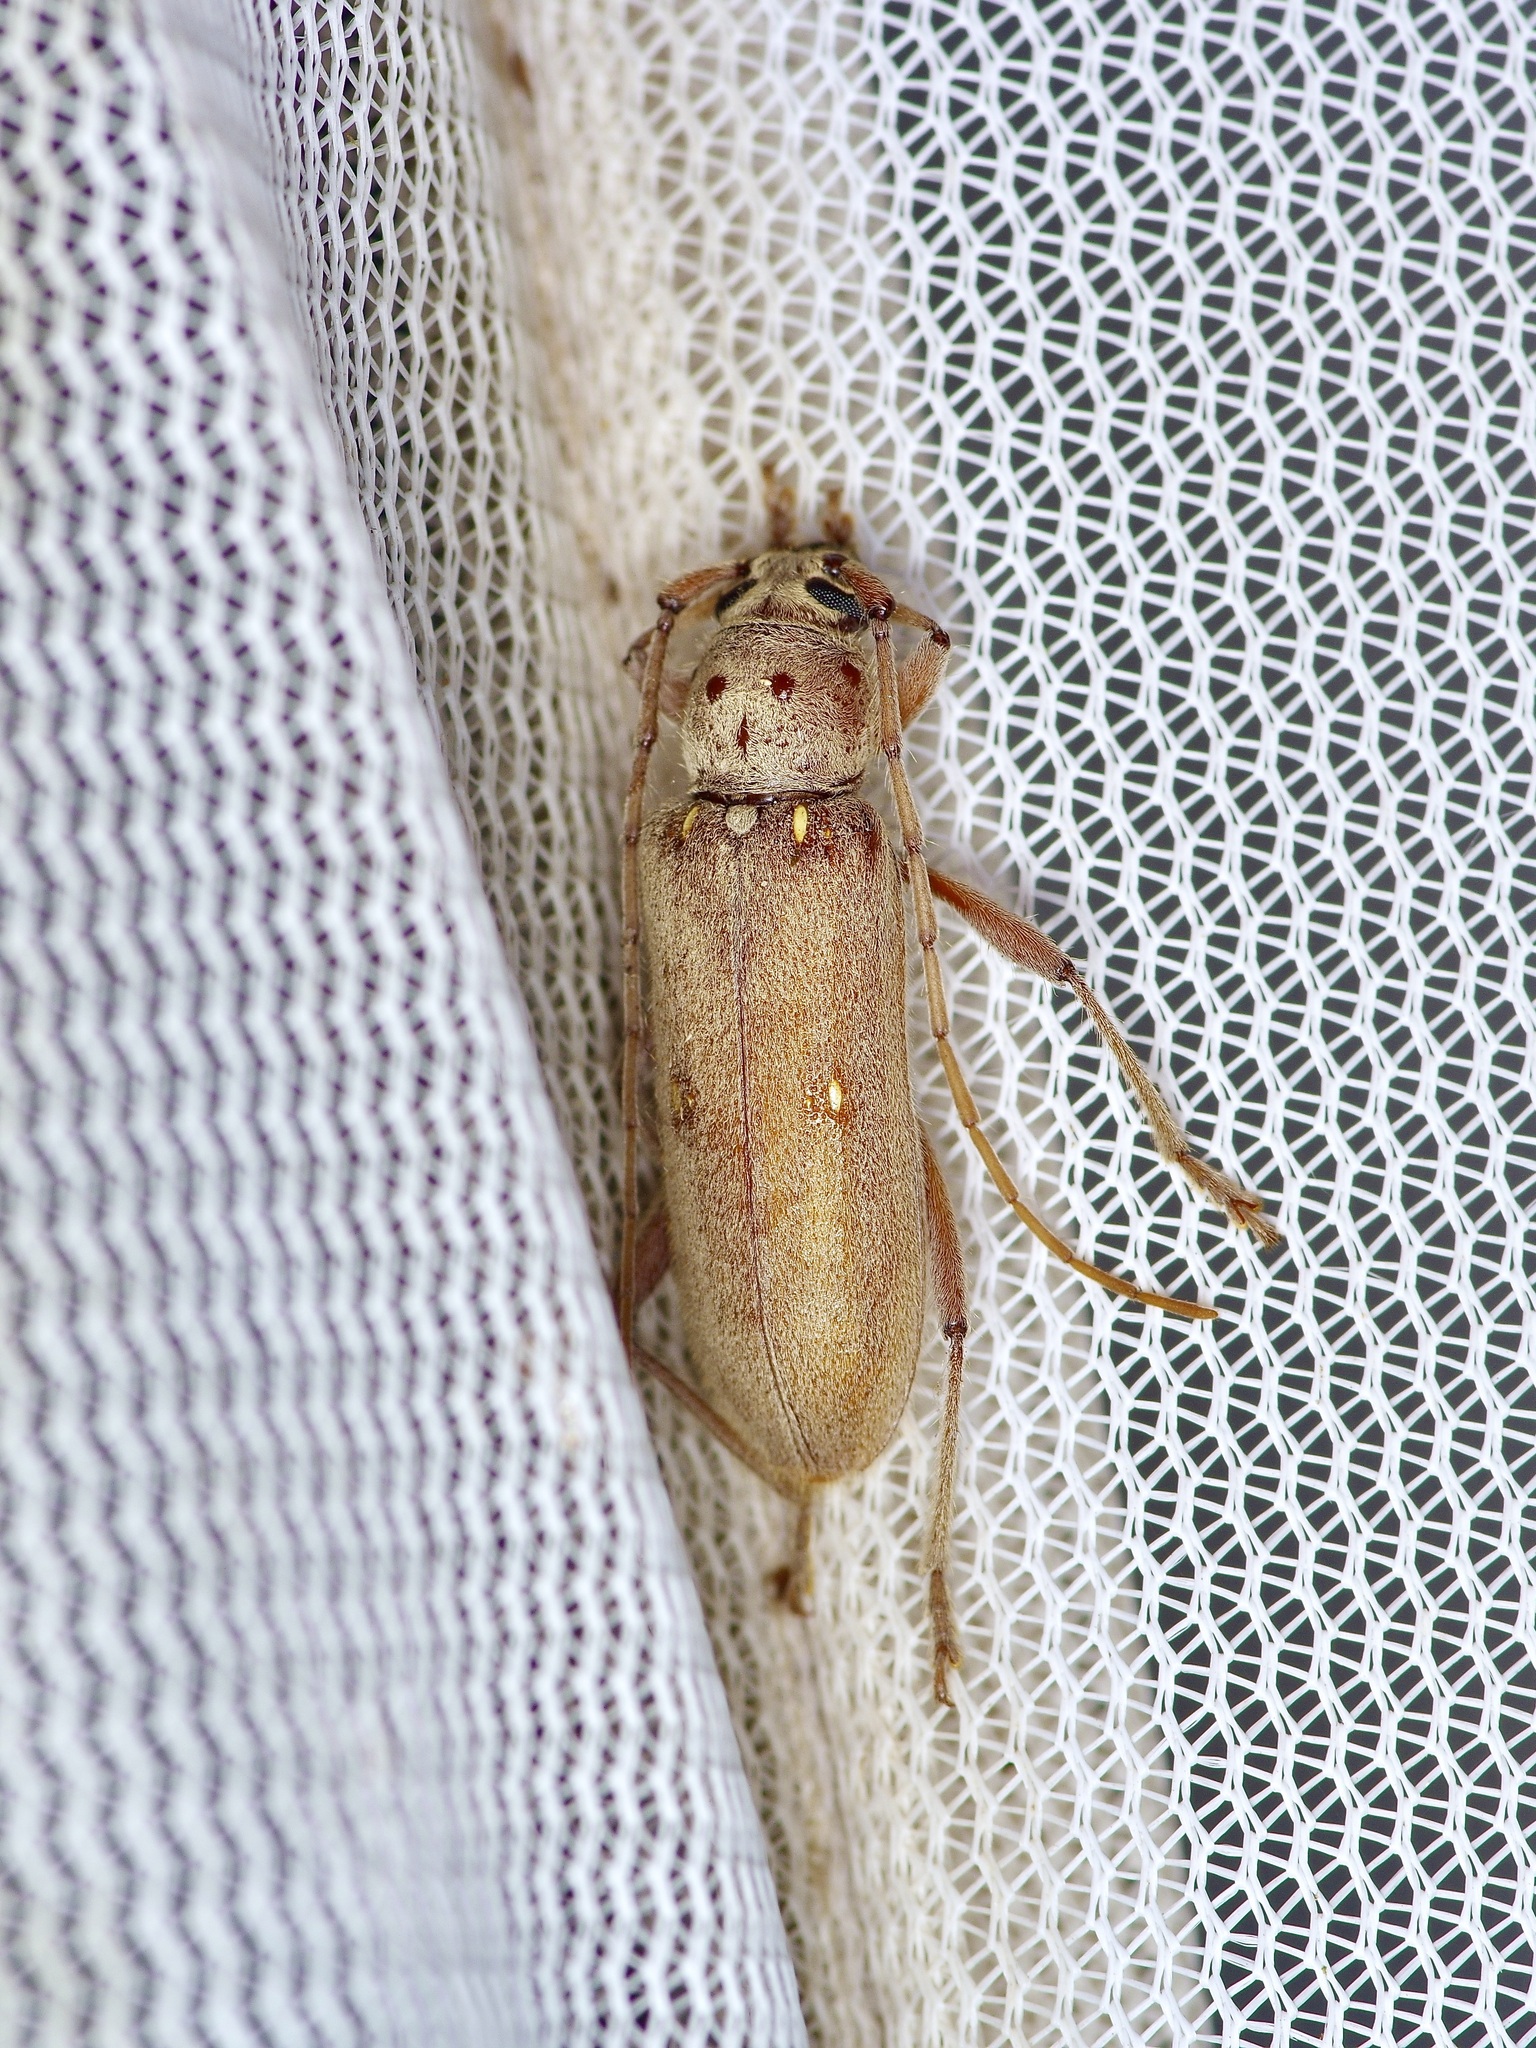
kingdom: Animalia
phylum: Arthropoda
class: Insecta
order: Coleoptera
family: Cerambycidae
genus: Eburia
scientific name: Eburia mutica
